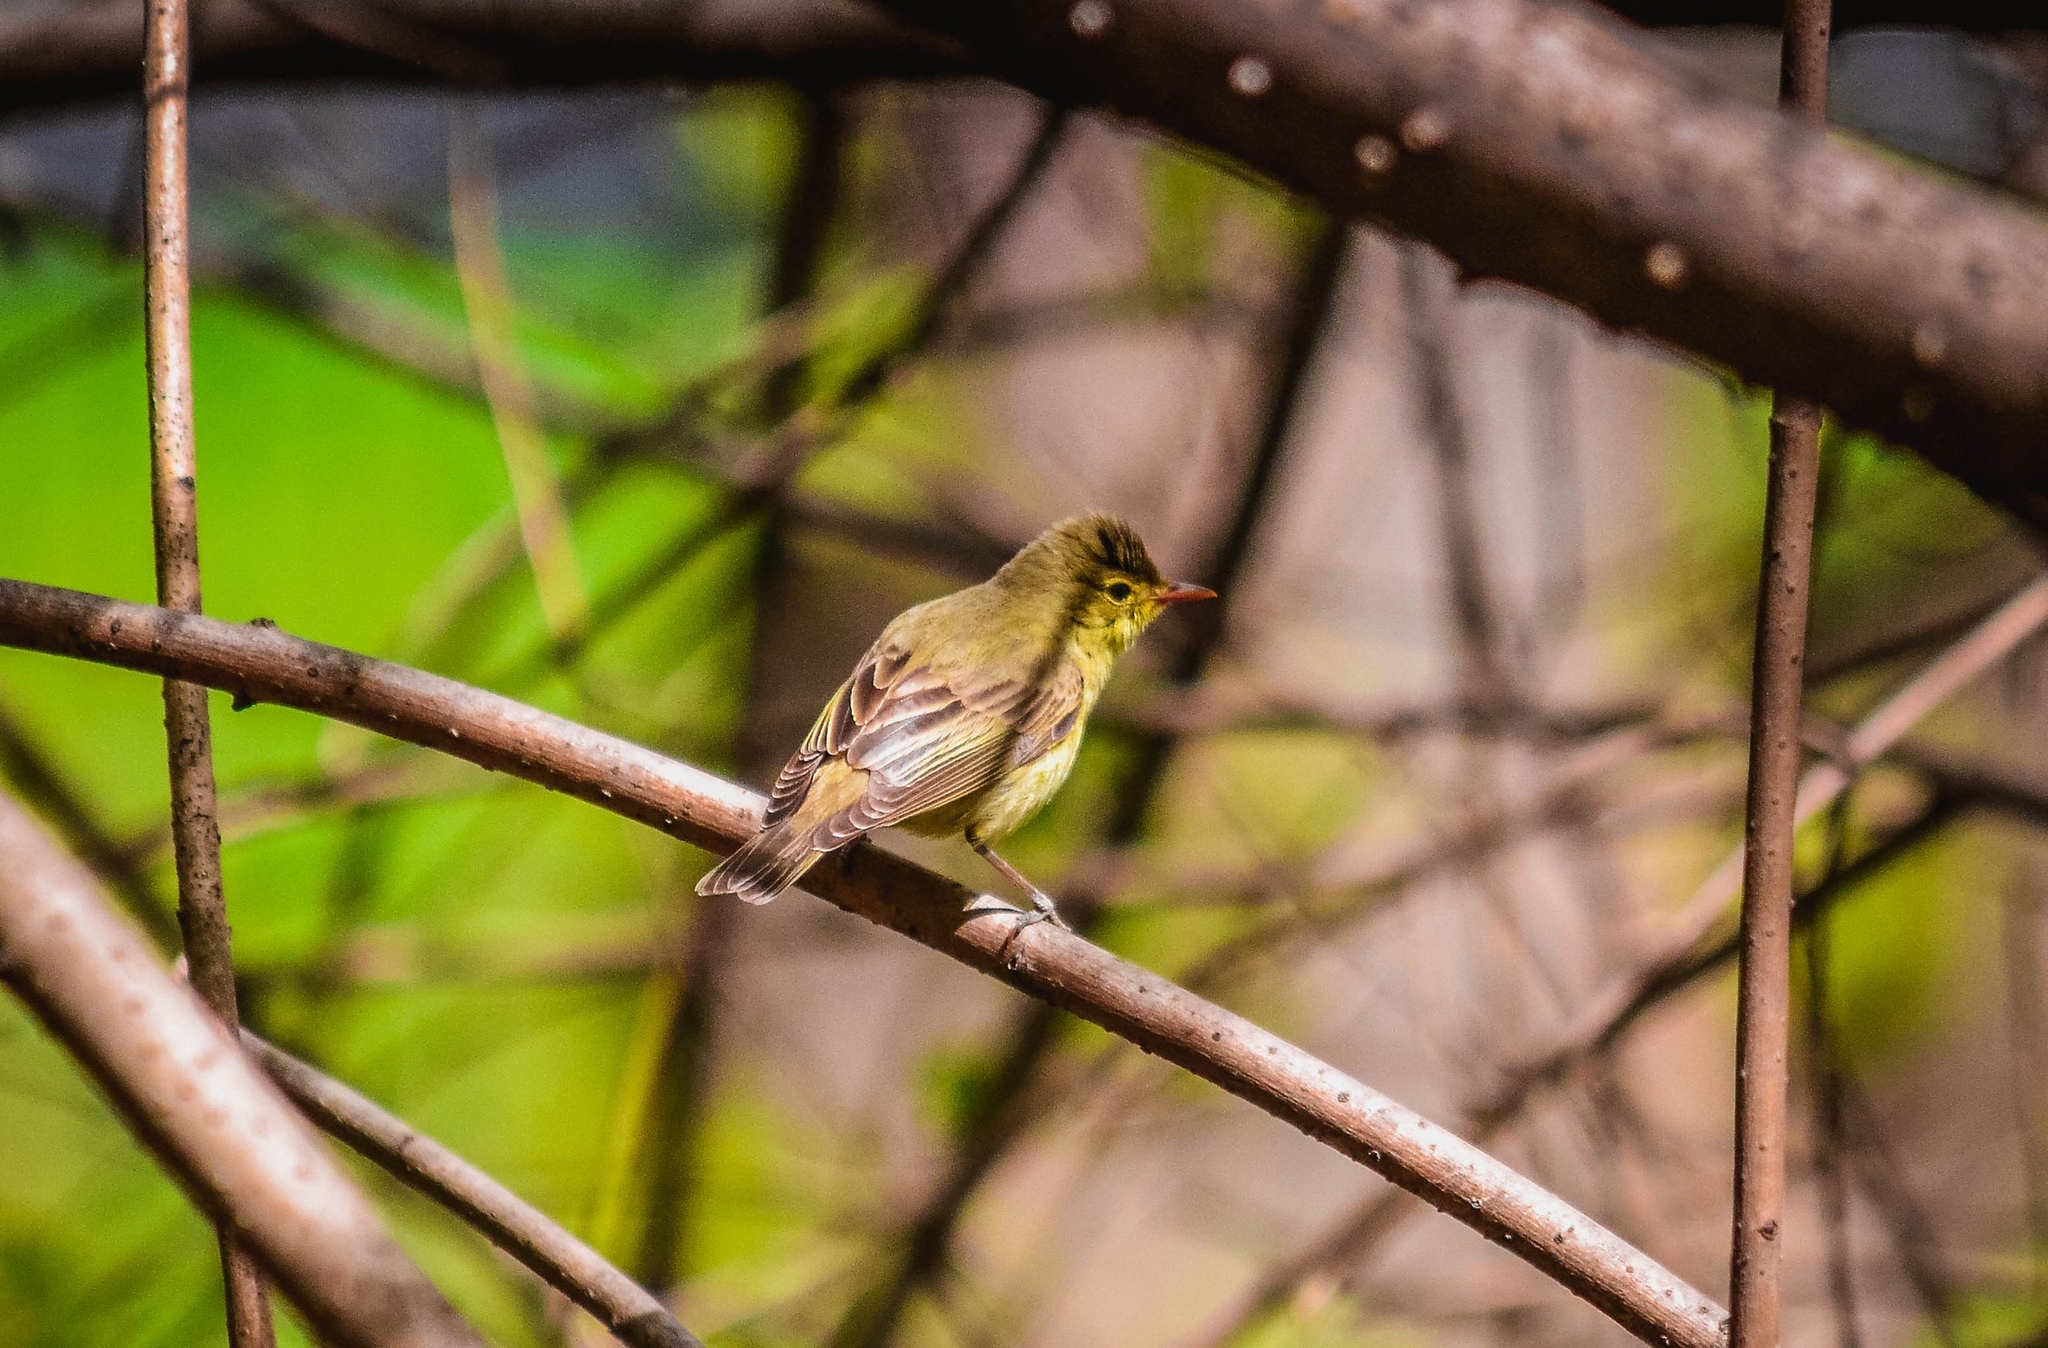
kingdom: Animalia
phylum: Chordata
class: Aves
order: Passeriformes
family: Acrocephalidae
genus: Hippolais
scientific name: Hippolais icterina
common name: Icterine warbler
